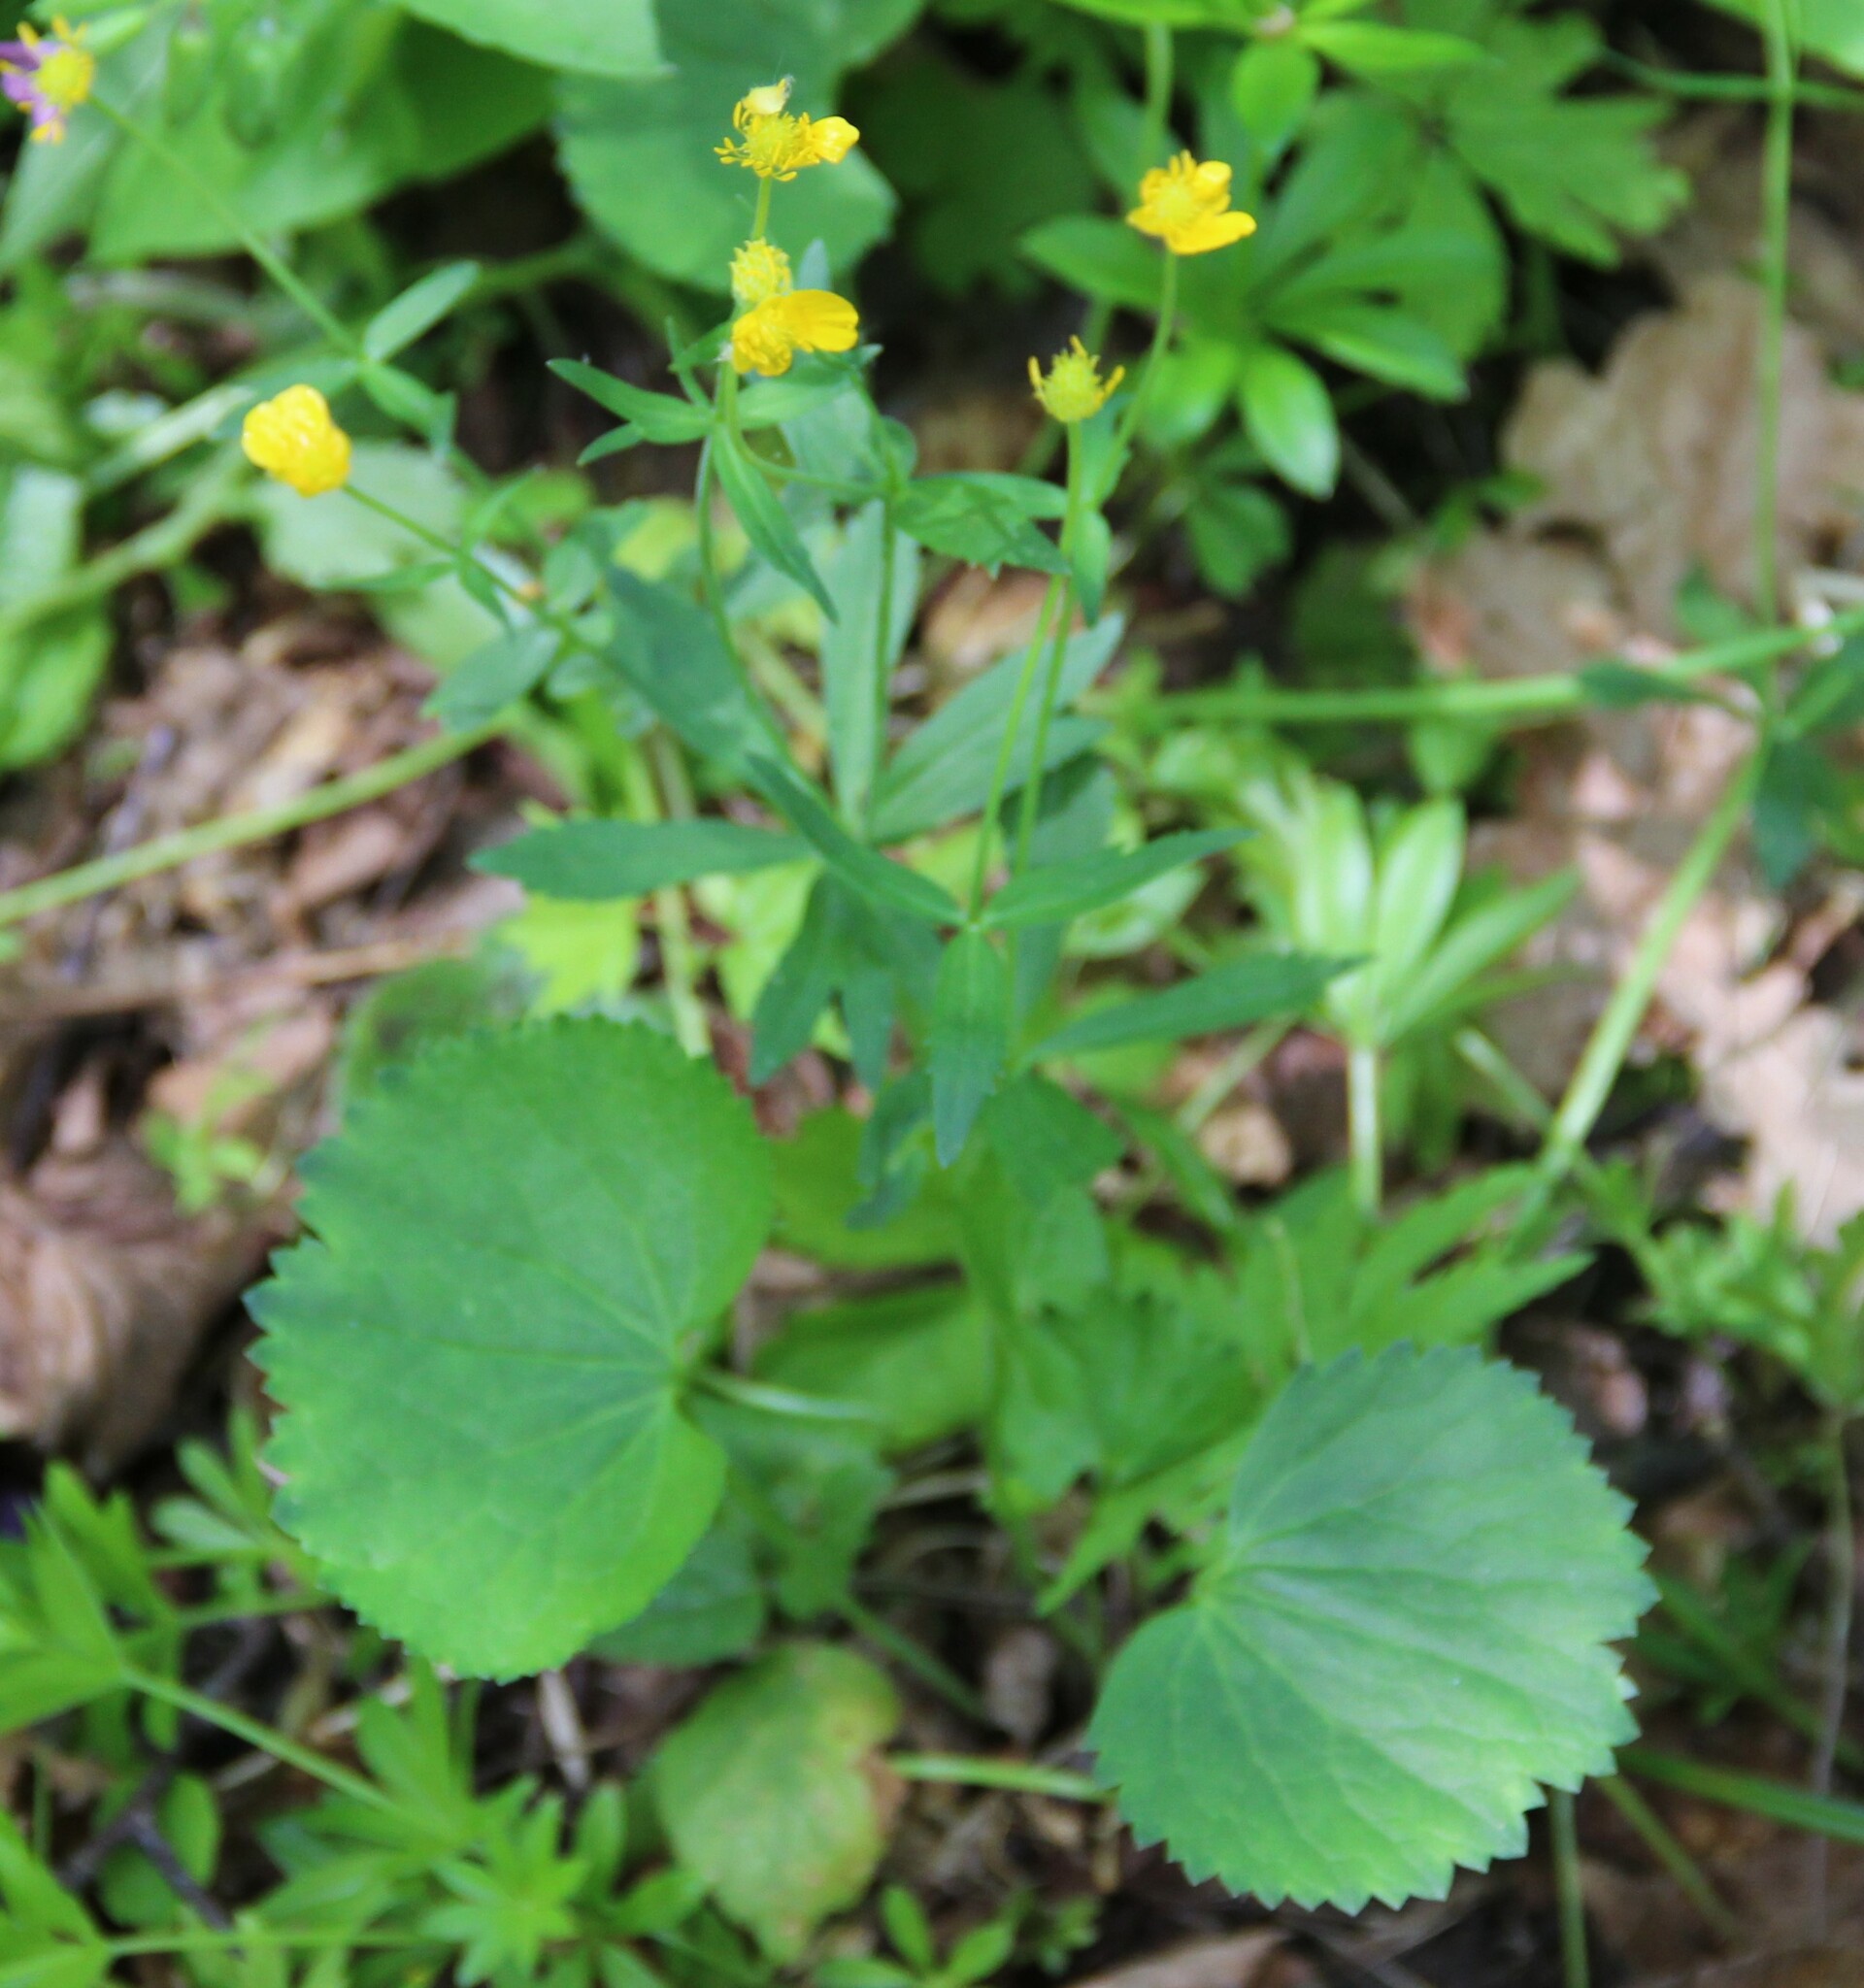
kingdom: Plantae
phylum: Tracheophyta
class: Magnoliopsida
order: Ranunculales
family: Ranunculaceae
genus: Ranunculus
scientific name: Ranunculus cassubicus
